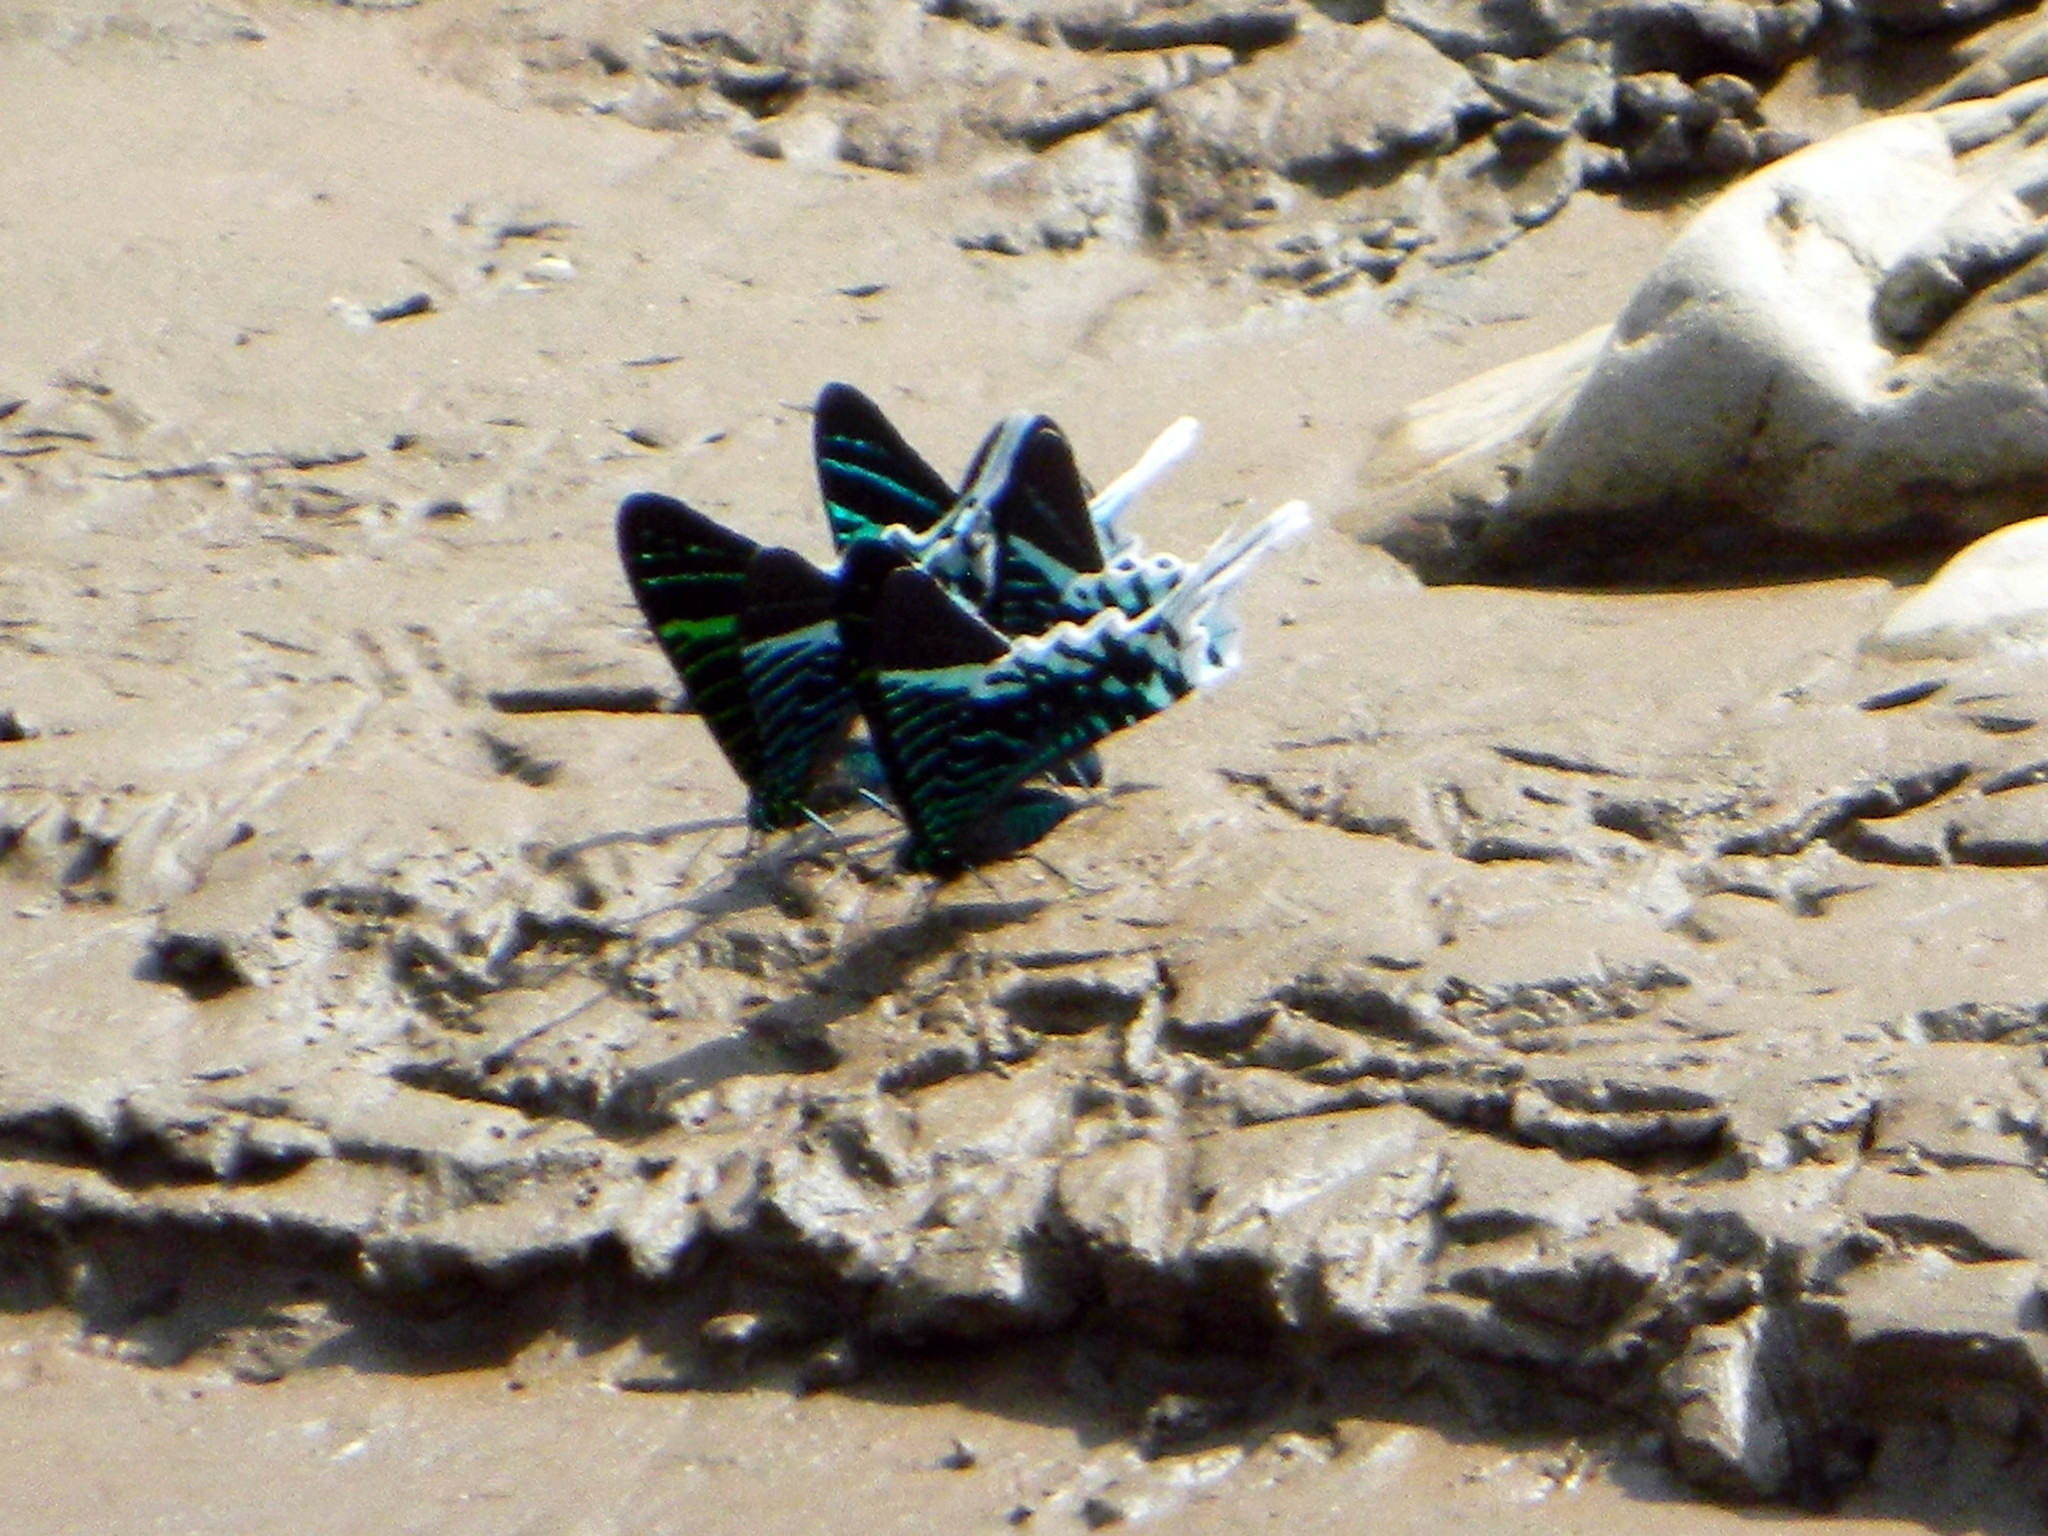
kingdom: Animalia
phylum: Arthropoda
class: Insecta
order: Lepidoptera
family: Uraniidae
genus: Urania
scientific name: Urania leilus
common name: Peacock moth
